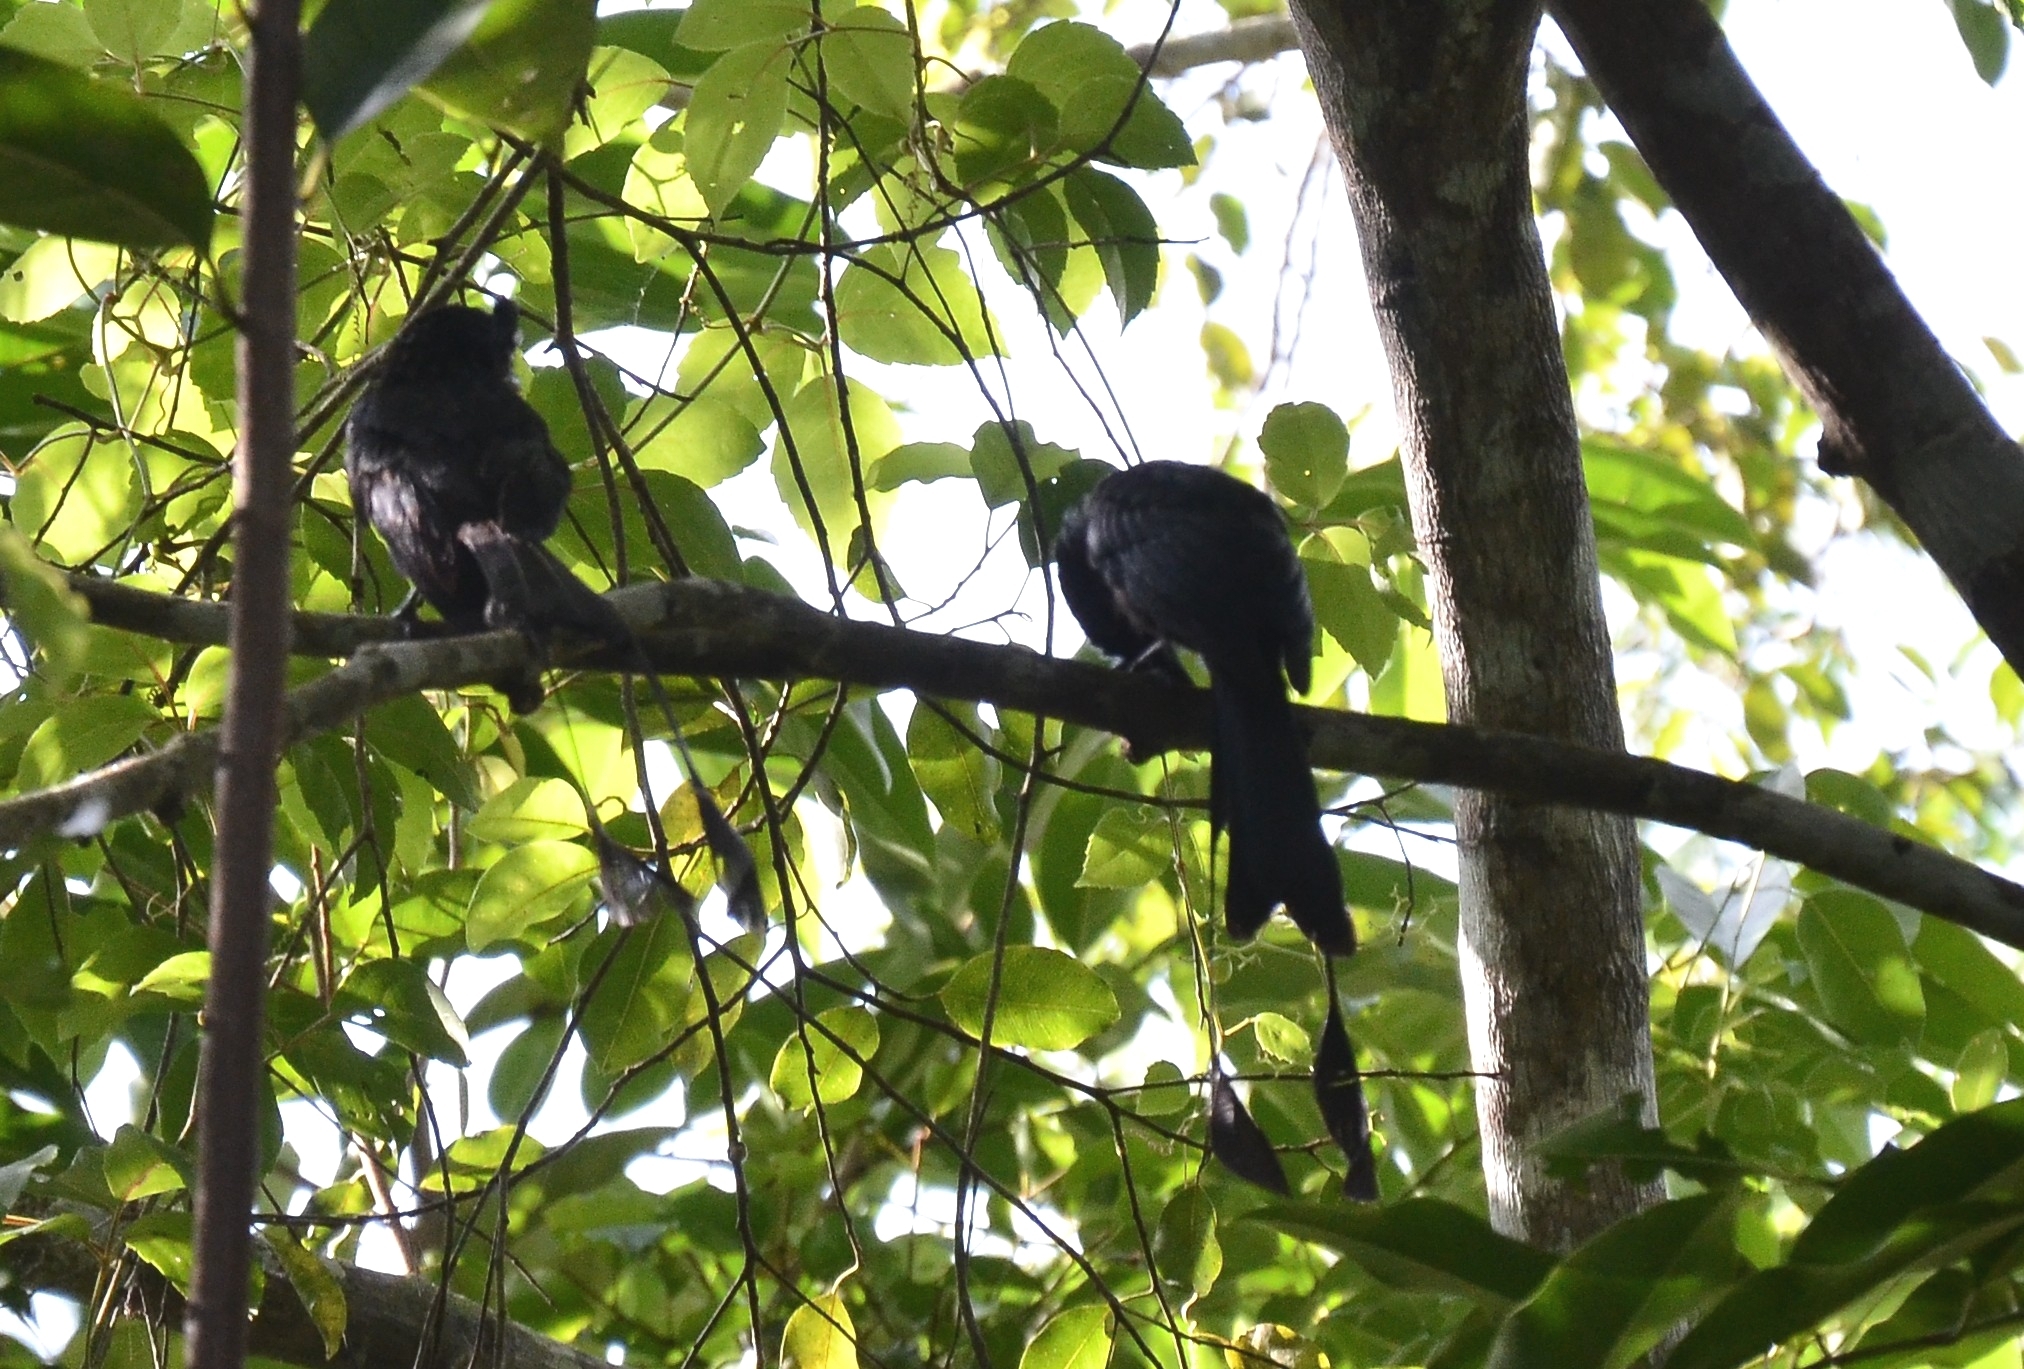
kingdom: Animalia
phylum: Chordata
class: Aves
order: Passeriformes
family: Dicruridae
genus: Dicrurus
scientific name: Dicrurus paradiseus
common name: Greater racket-tailed drongo
